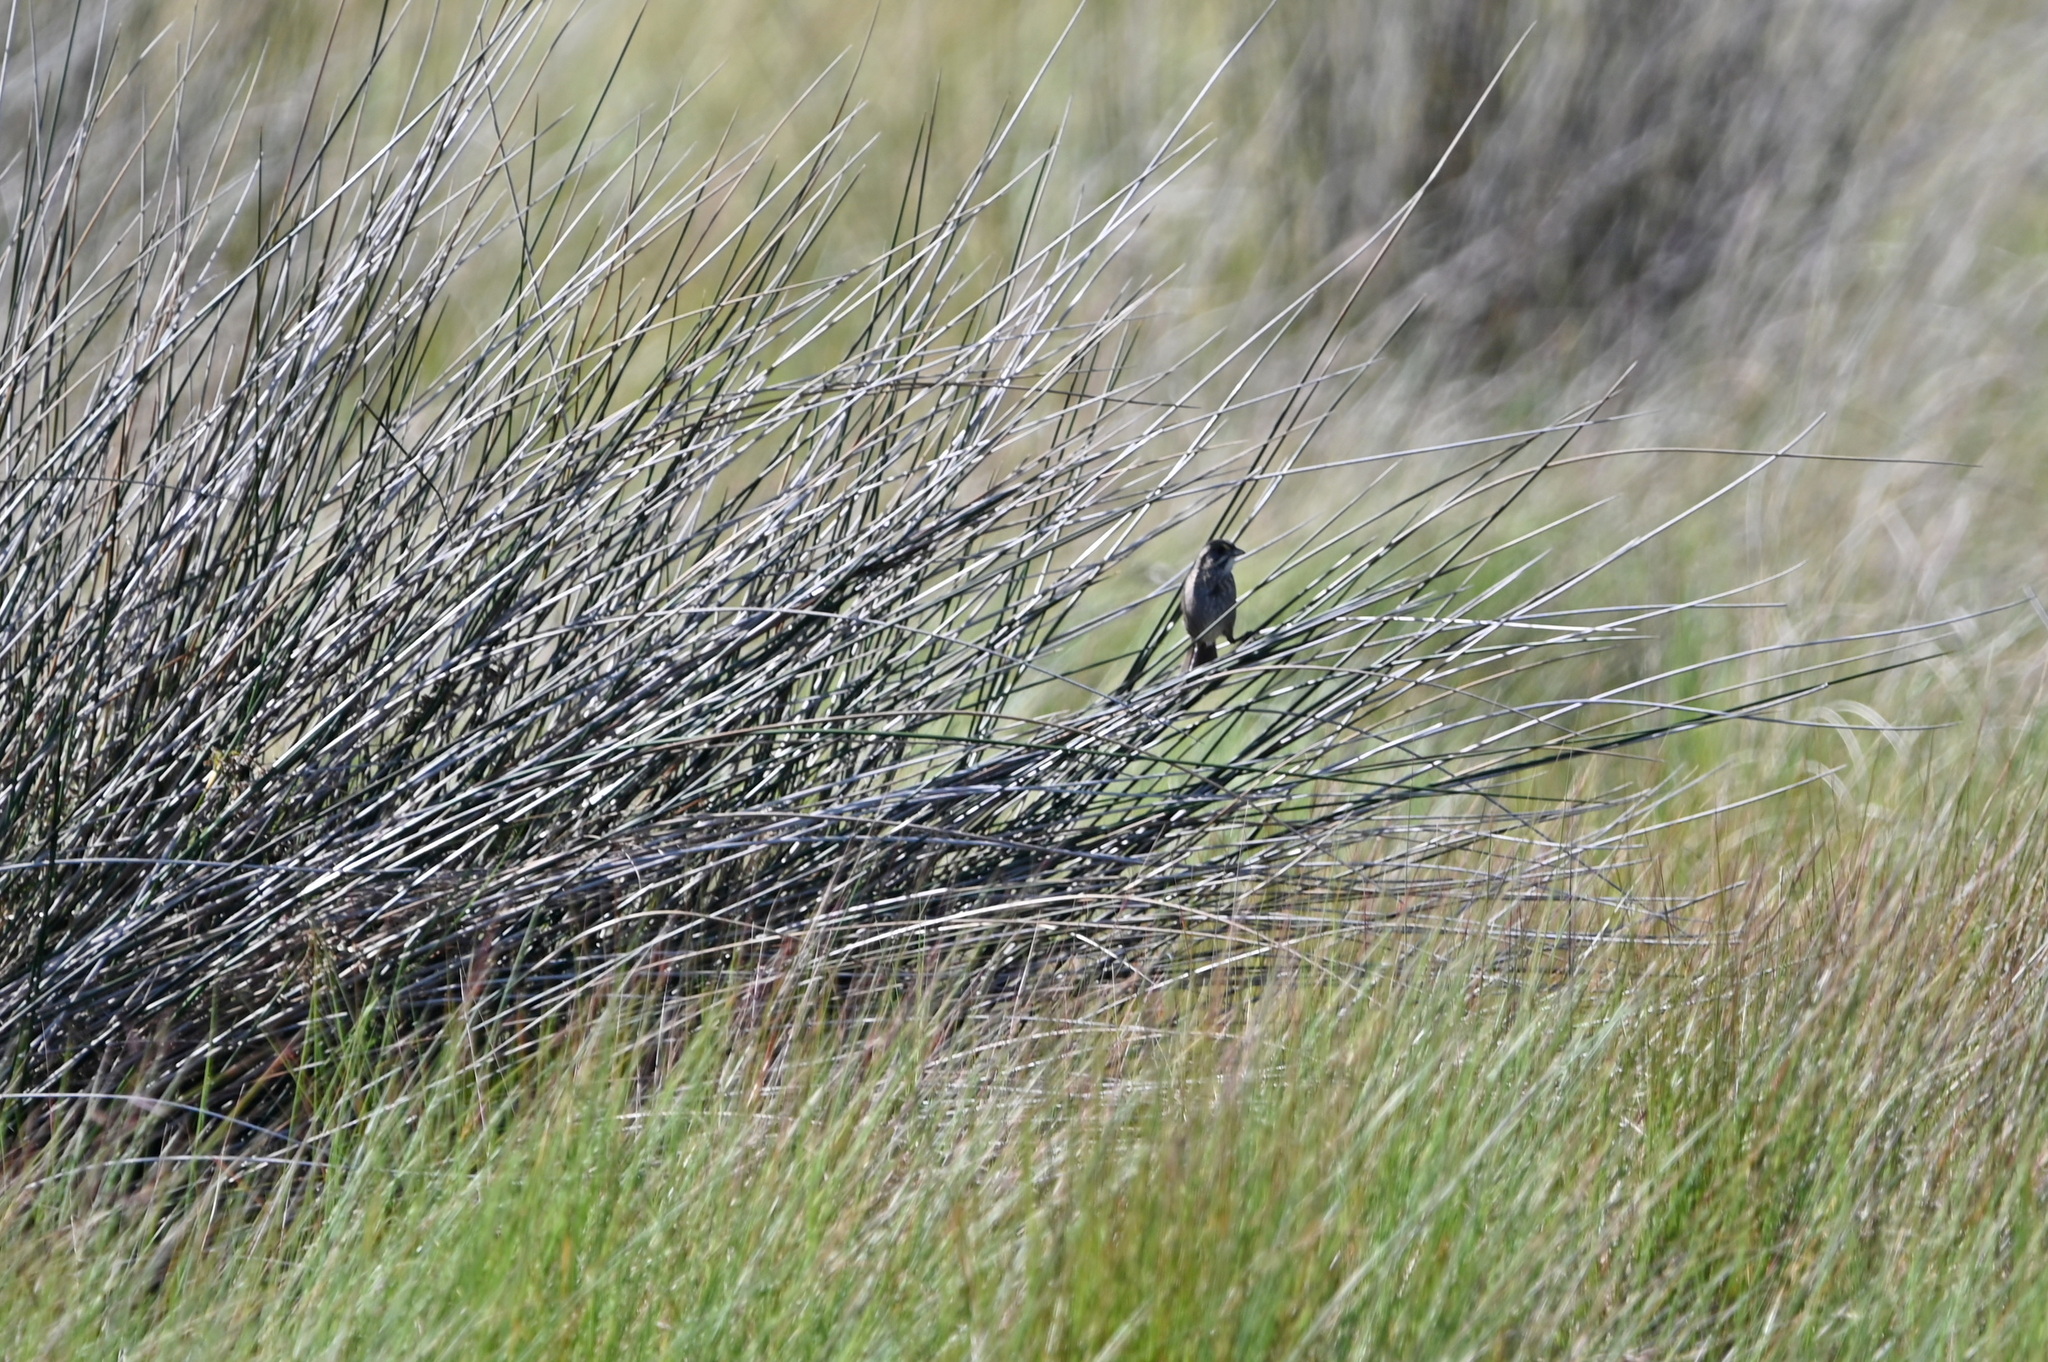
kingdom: Animalia
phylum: Chordata
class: Aves
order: Passeriformes
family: Passerellidae
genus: Ammospiza
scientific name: Ammospiza maritima
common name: Seaside sparrow
